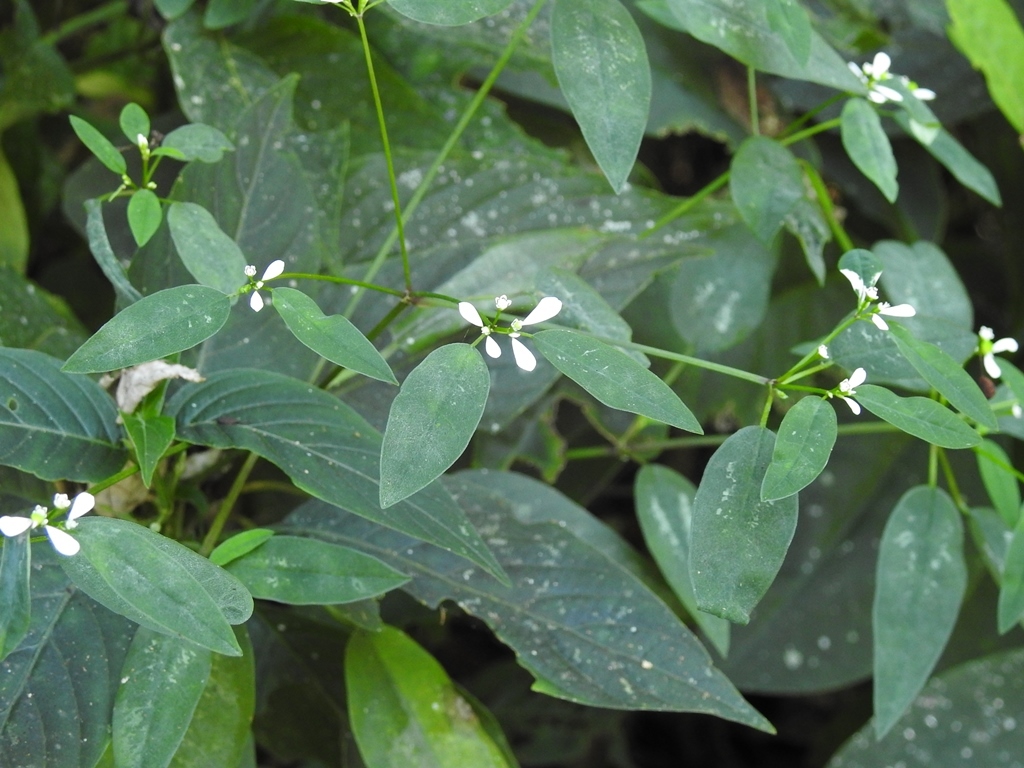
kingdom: Plantae
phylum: Tracheophyta
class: Magnoliopsida
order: Malpighiales
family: Euphorbiaceae
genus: Euphorbia
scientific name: Euphorbia ariensis
